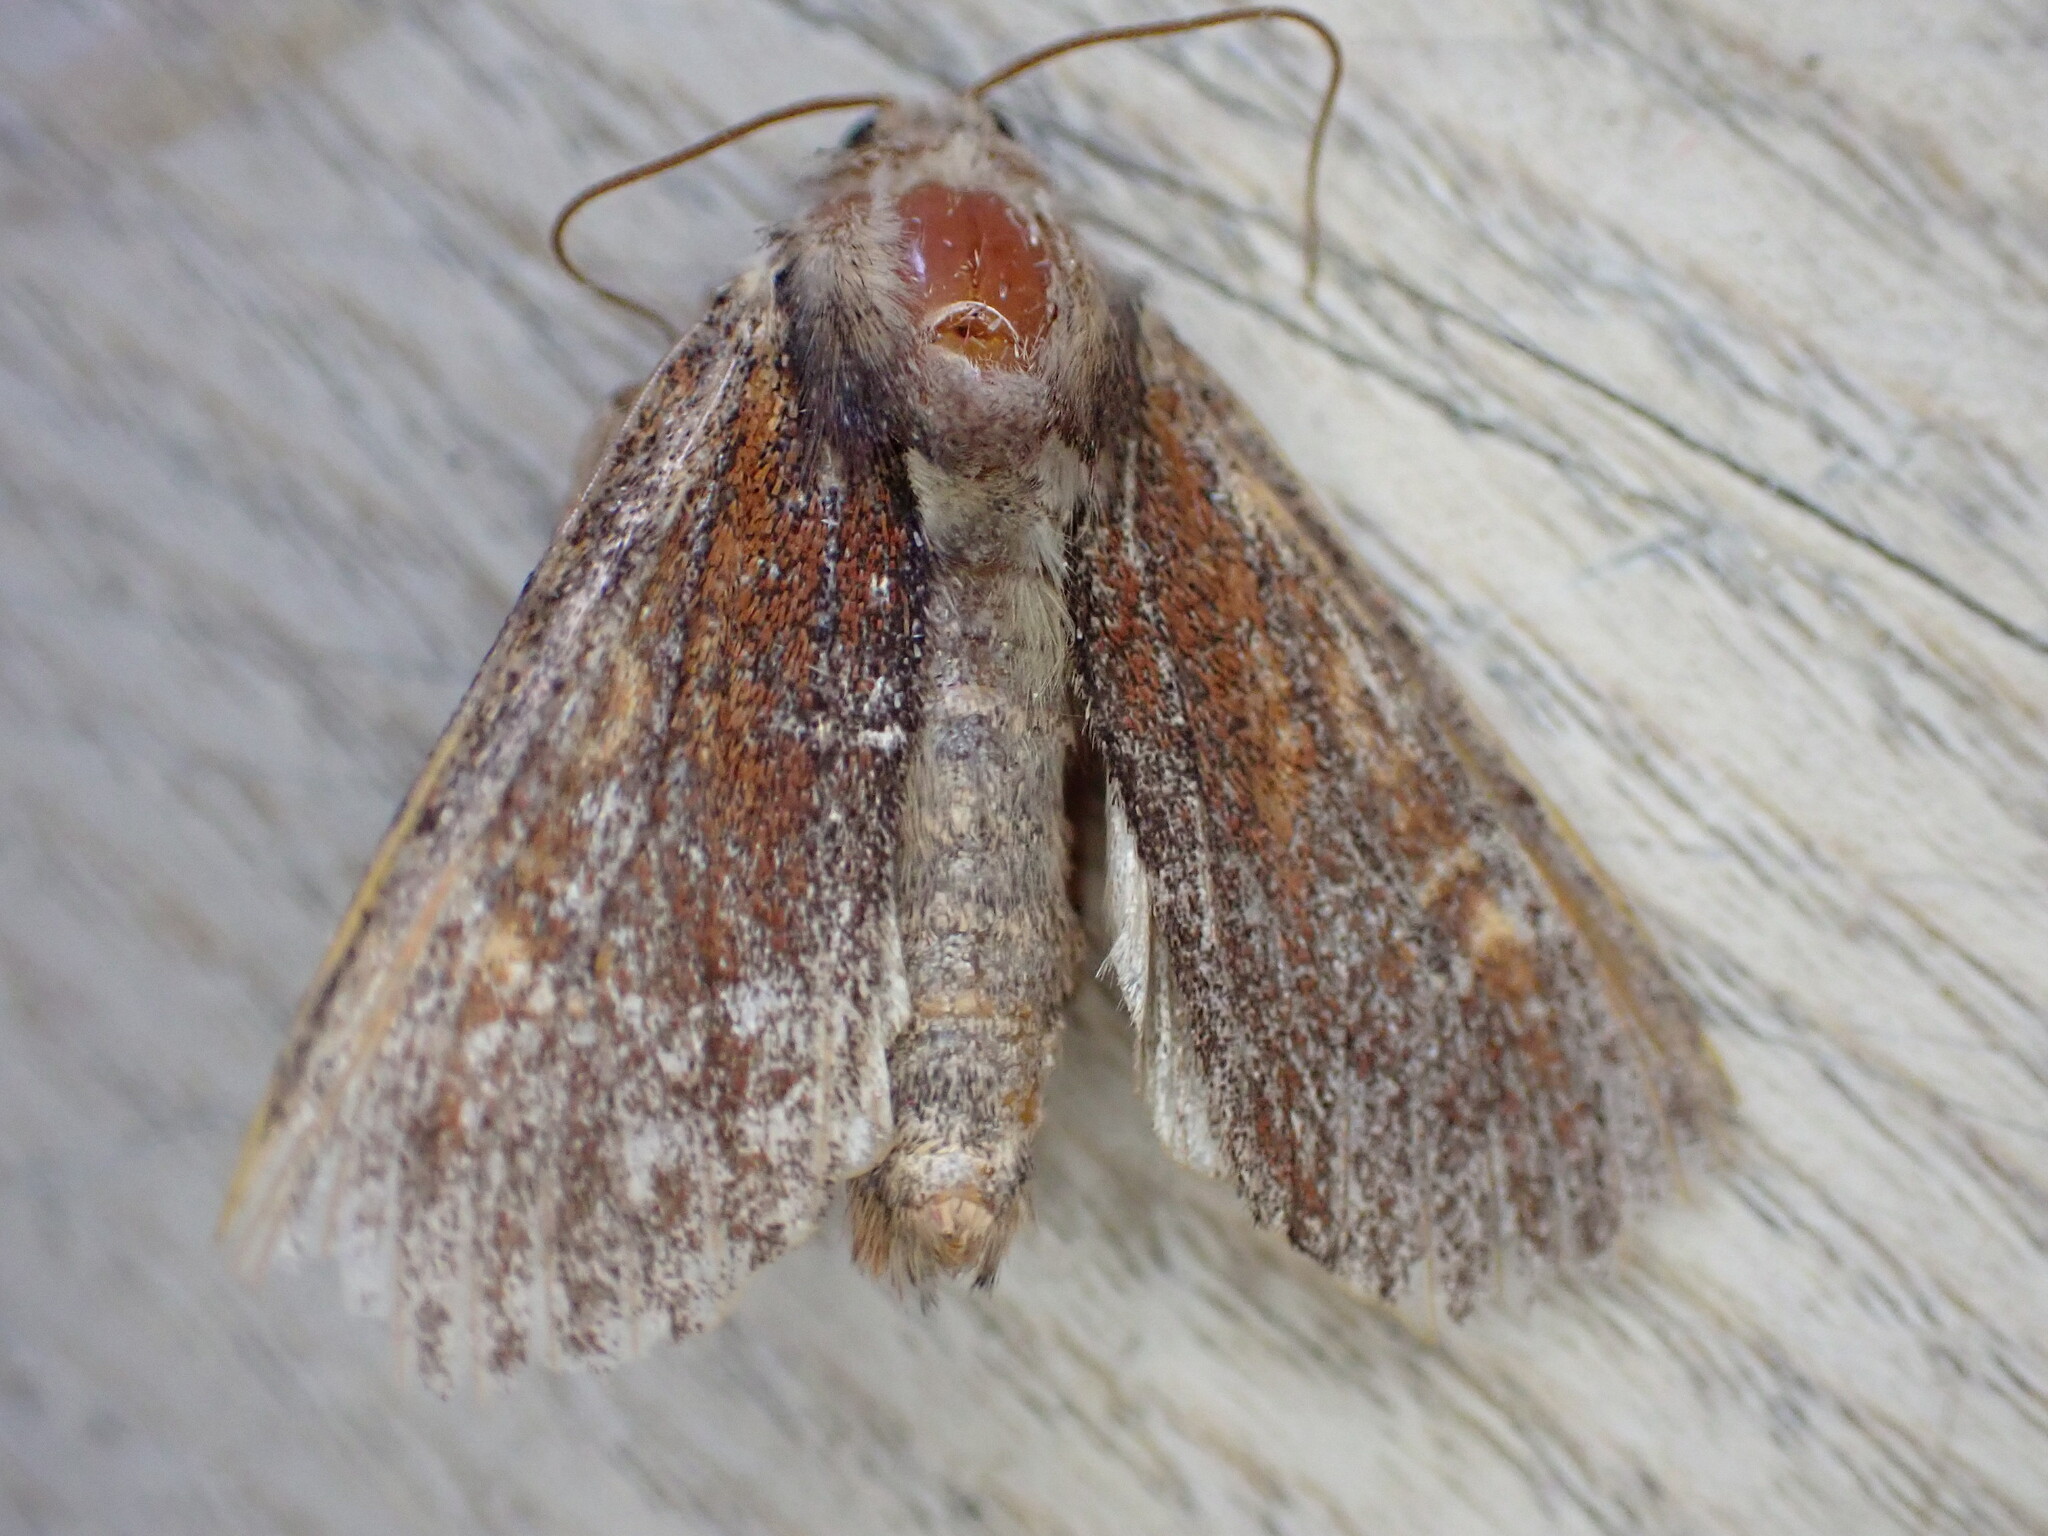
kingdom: Animalia
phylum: Arthropoda
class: Insecta
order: Lepidoptera
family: Noctuidae
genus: Apamea
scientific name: Apamea crenata
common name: Clouded-bordered brindle
